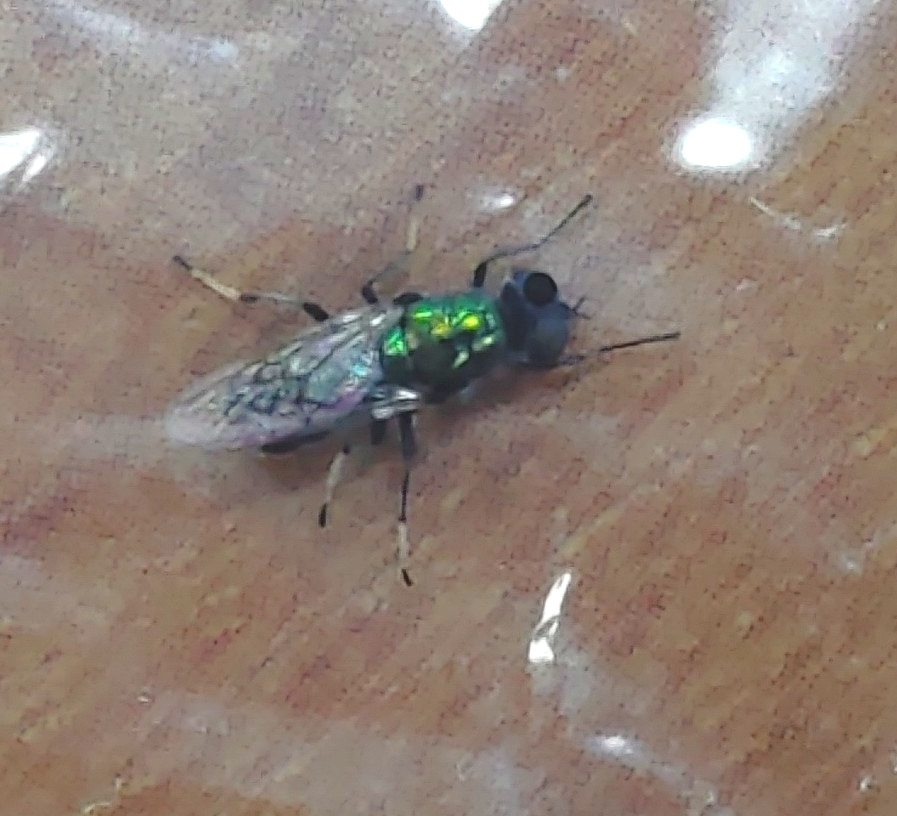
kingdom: Animalia
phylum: Arthropoda
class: Insecta
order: Diptera
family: Stratiomyidae
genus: Prosopochrysa
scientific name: Prosopochrysa vitripennis
